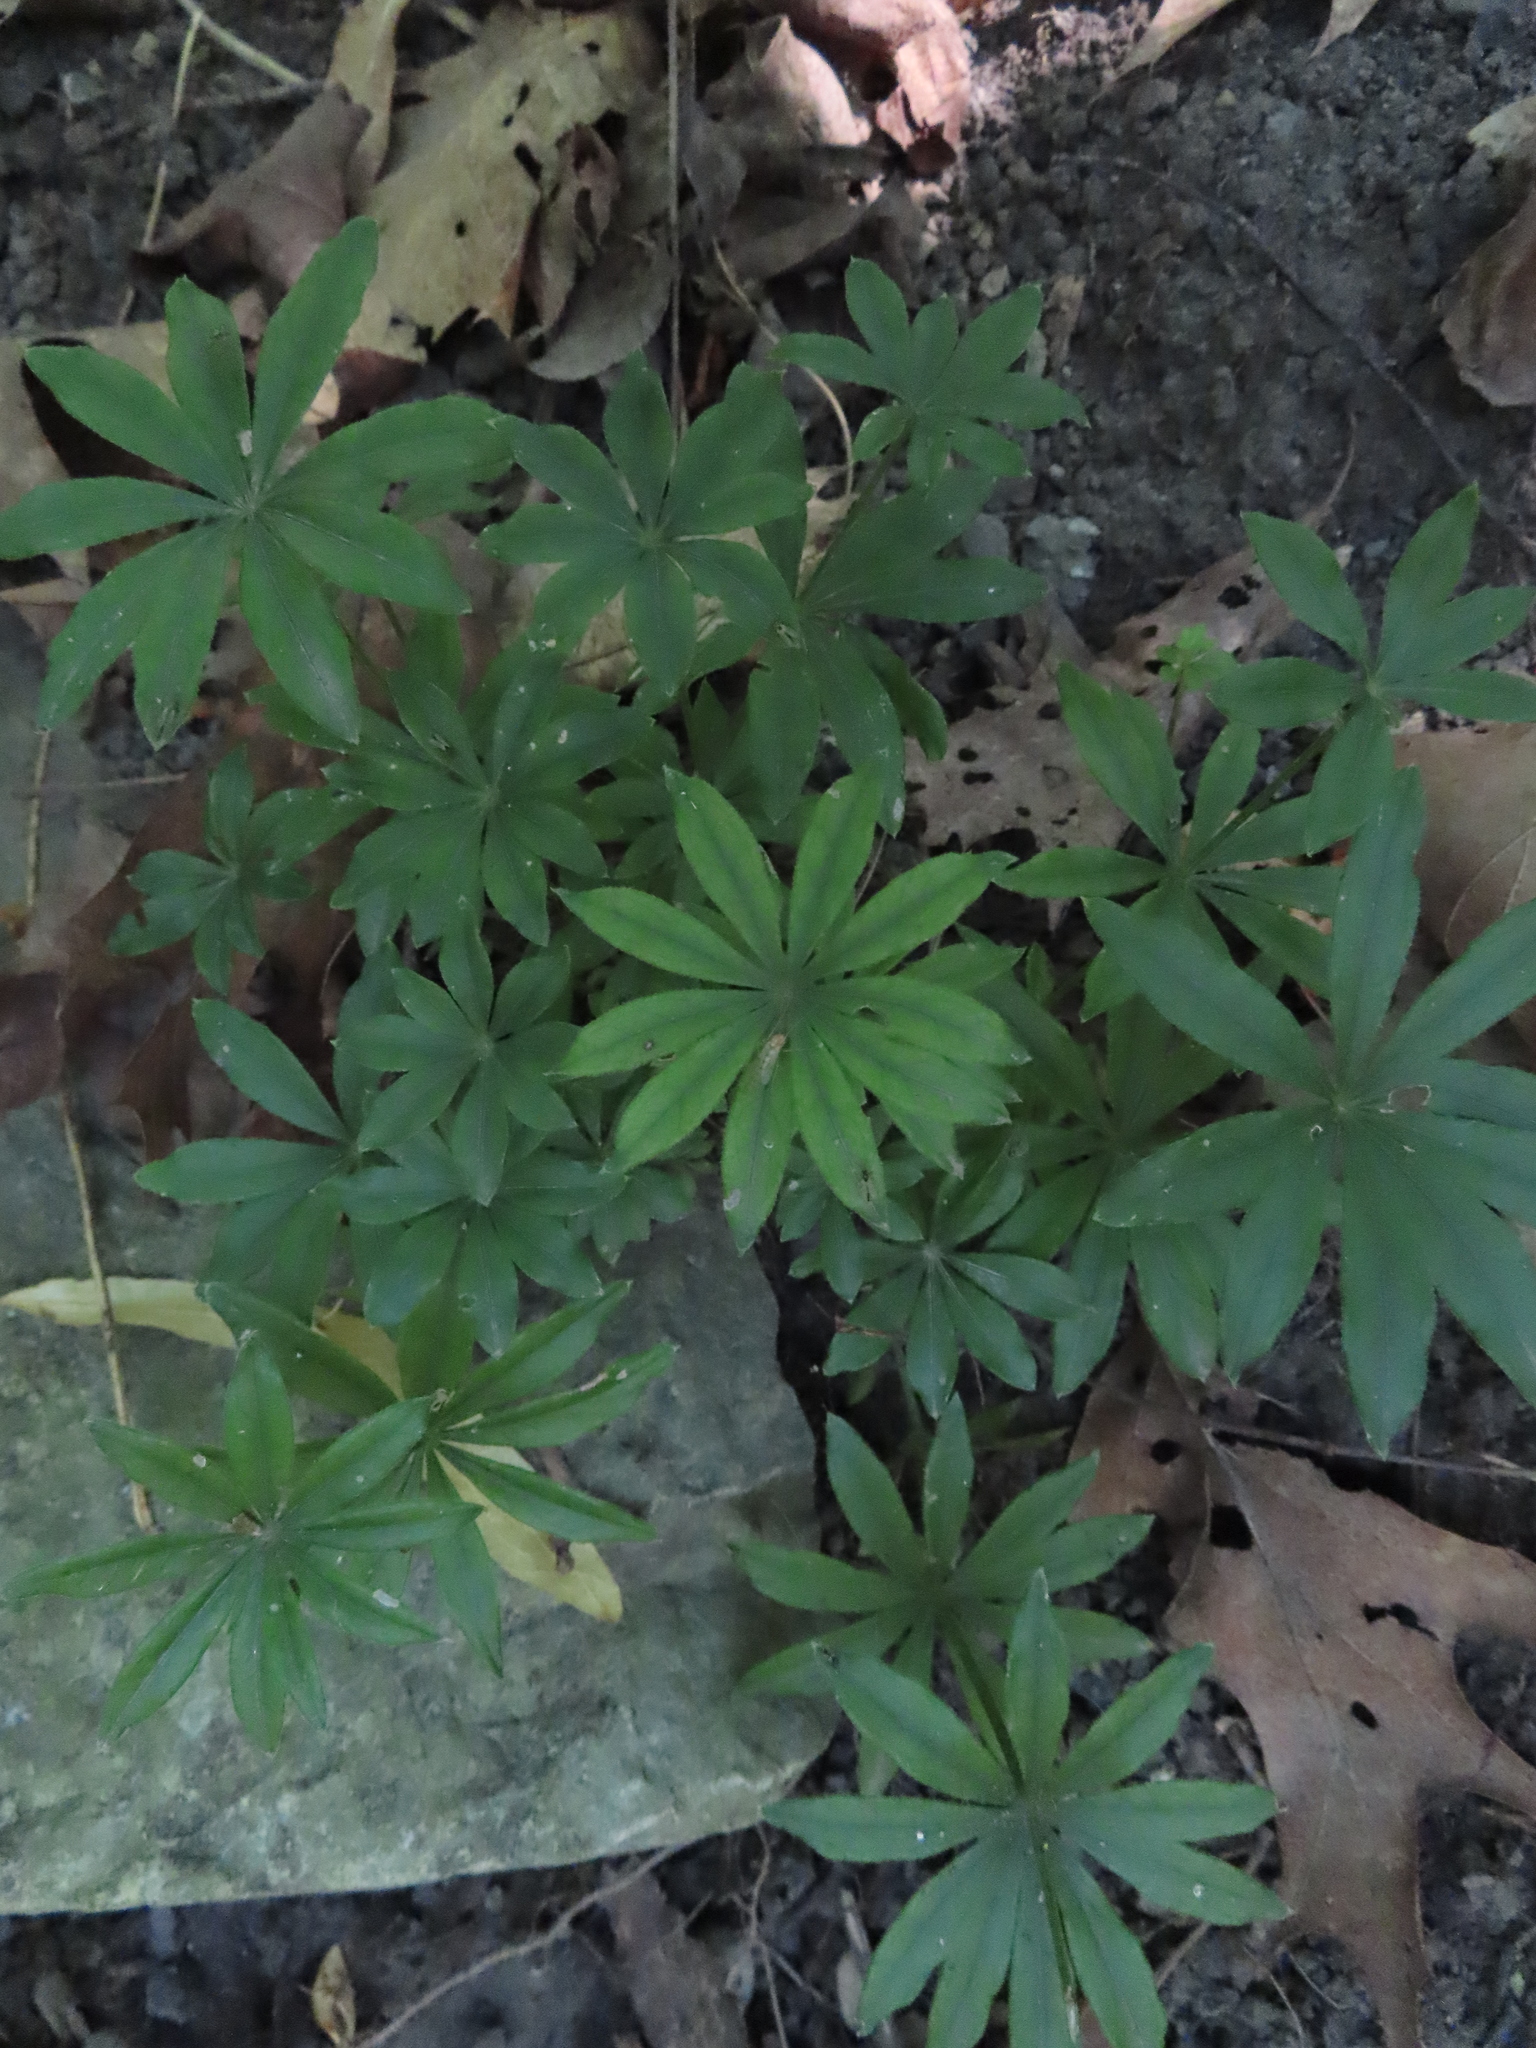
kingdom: Plantae
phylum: Tracheophyta
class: Magnoliopsida
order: Gentianales
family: Rubiaceae
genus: Galium
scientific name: Galium odoratum
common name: Sweet woodruff
